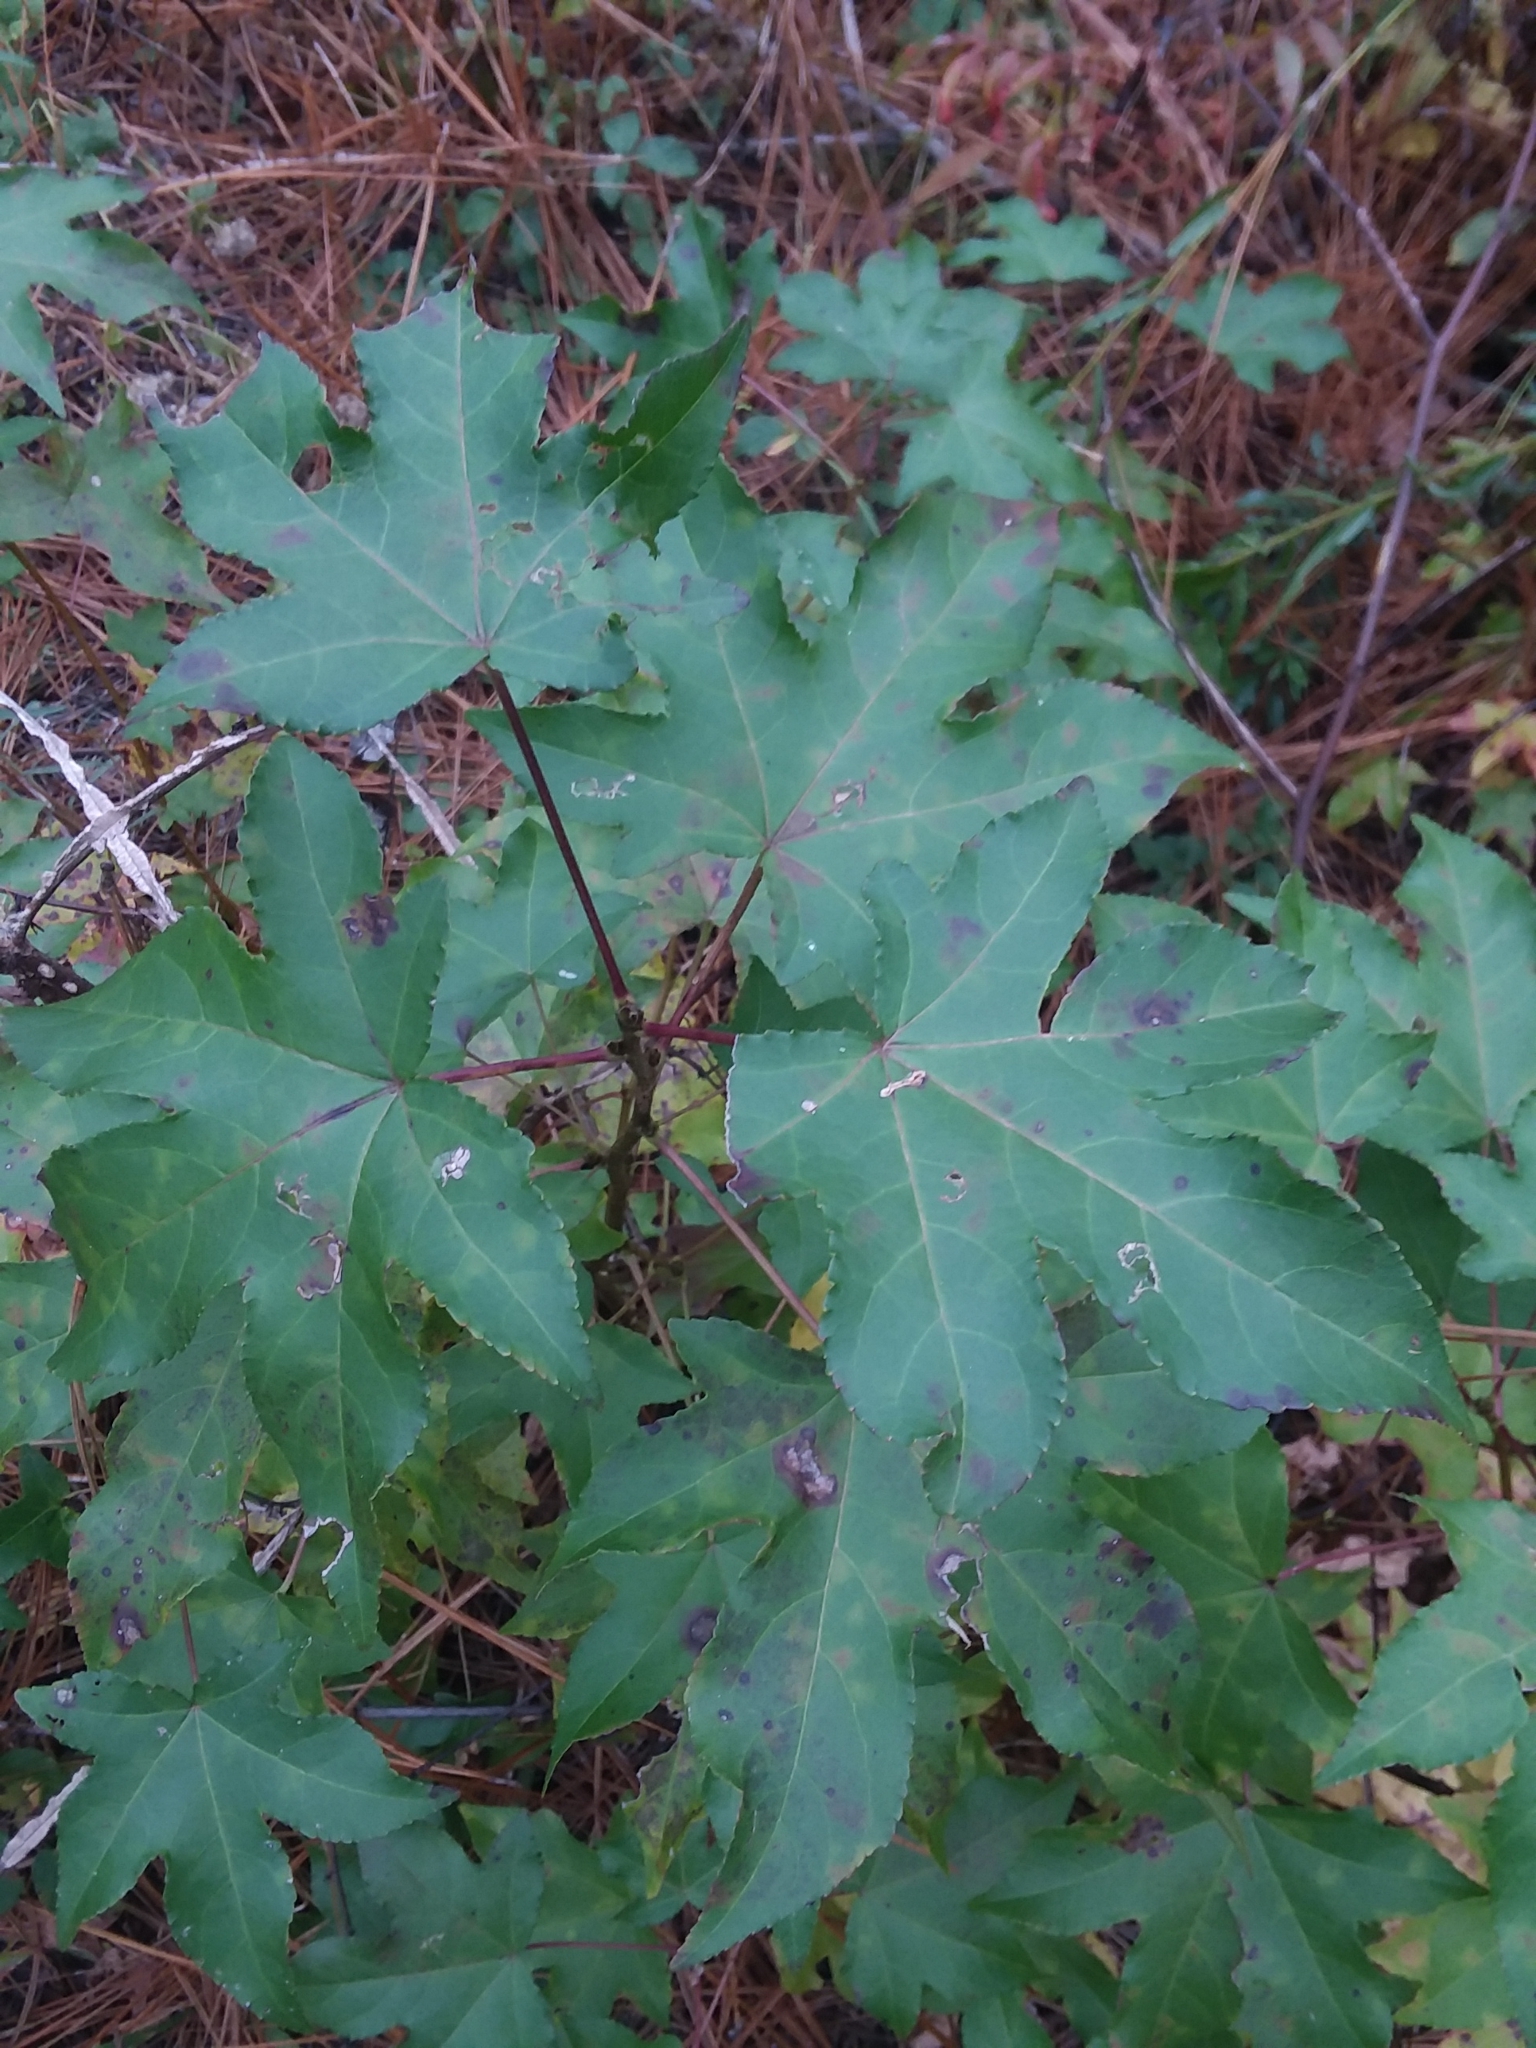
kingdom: Plantae
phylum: Tracheophyta
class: Magnoliopsida
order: Saxifragales
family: Altingiaceae
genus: Liquidambar
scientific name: Liquidambar styraciflua
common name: Sweet gum
